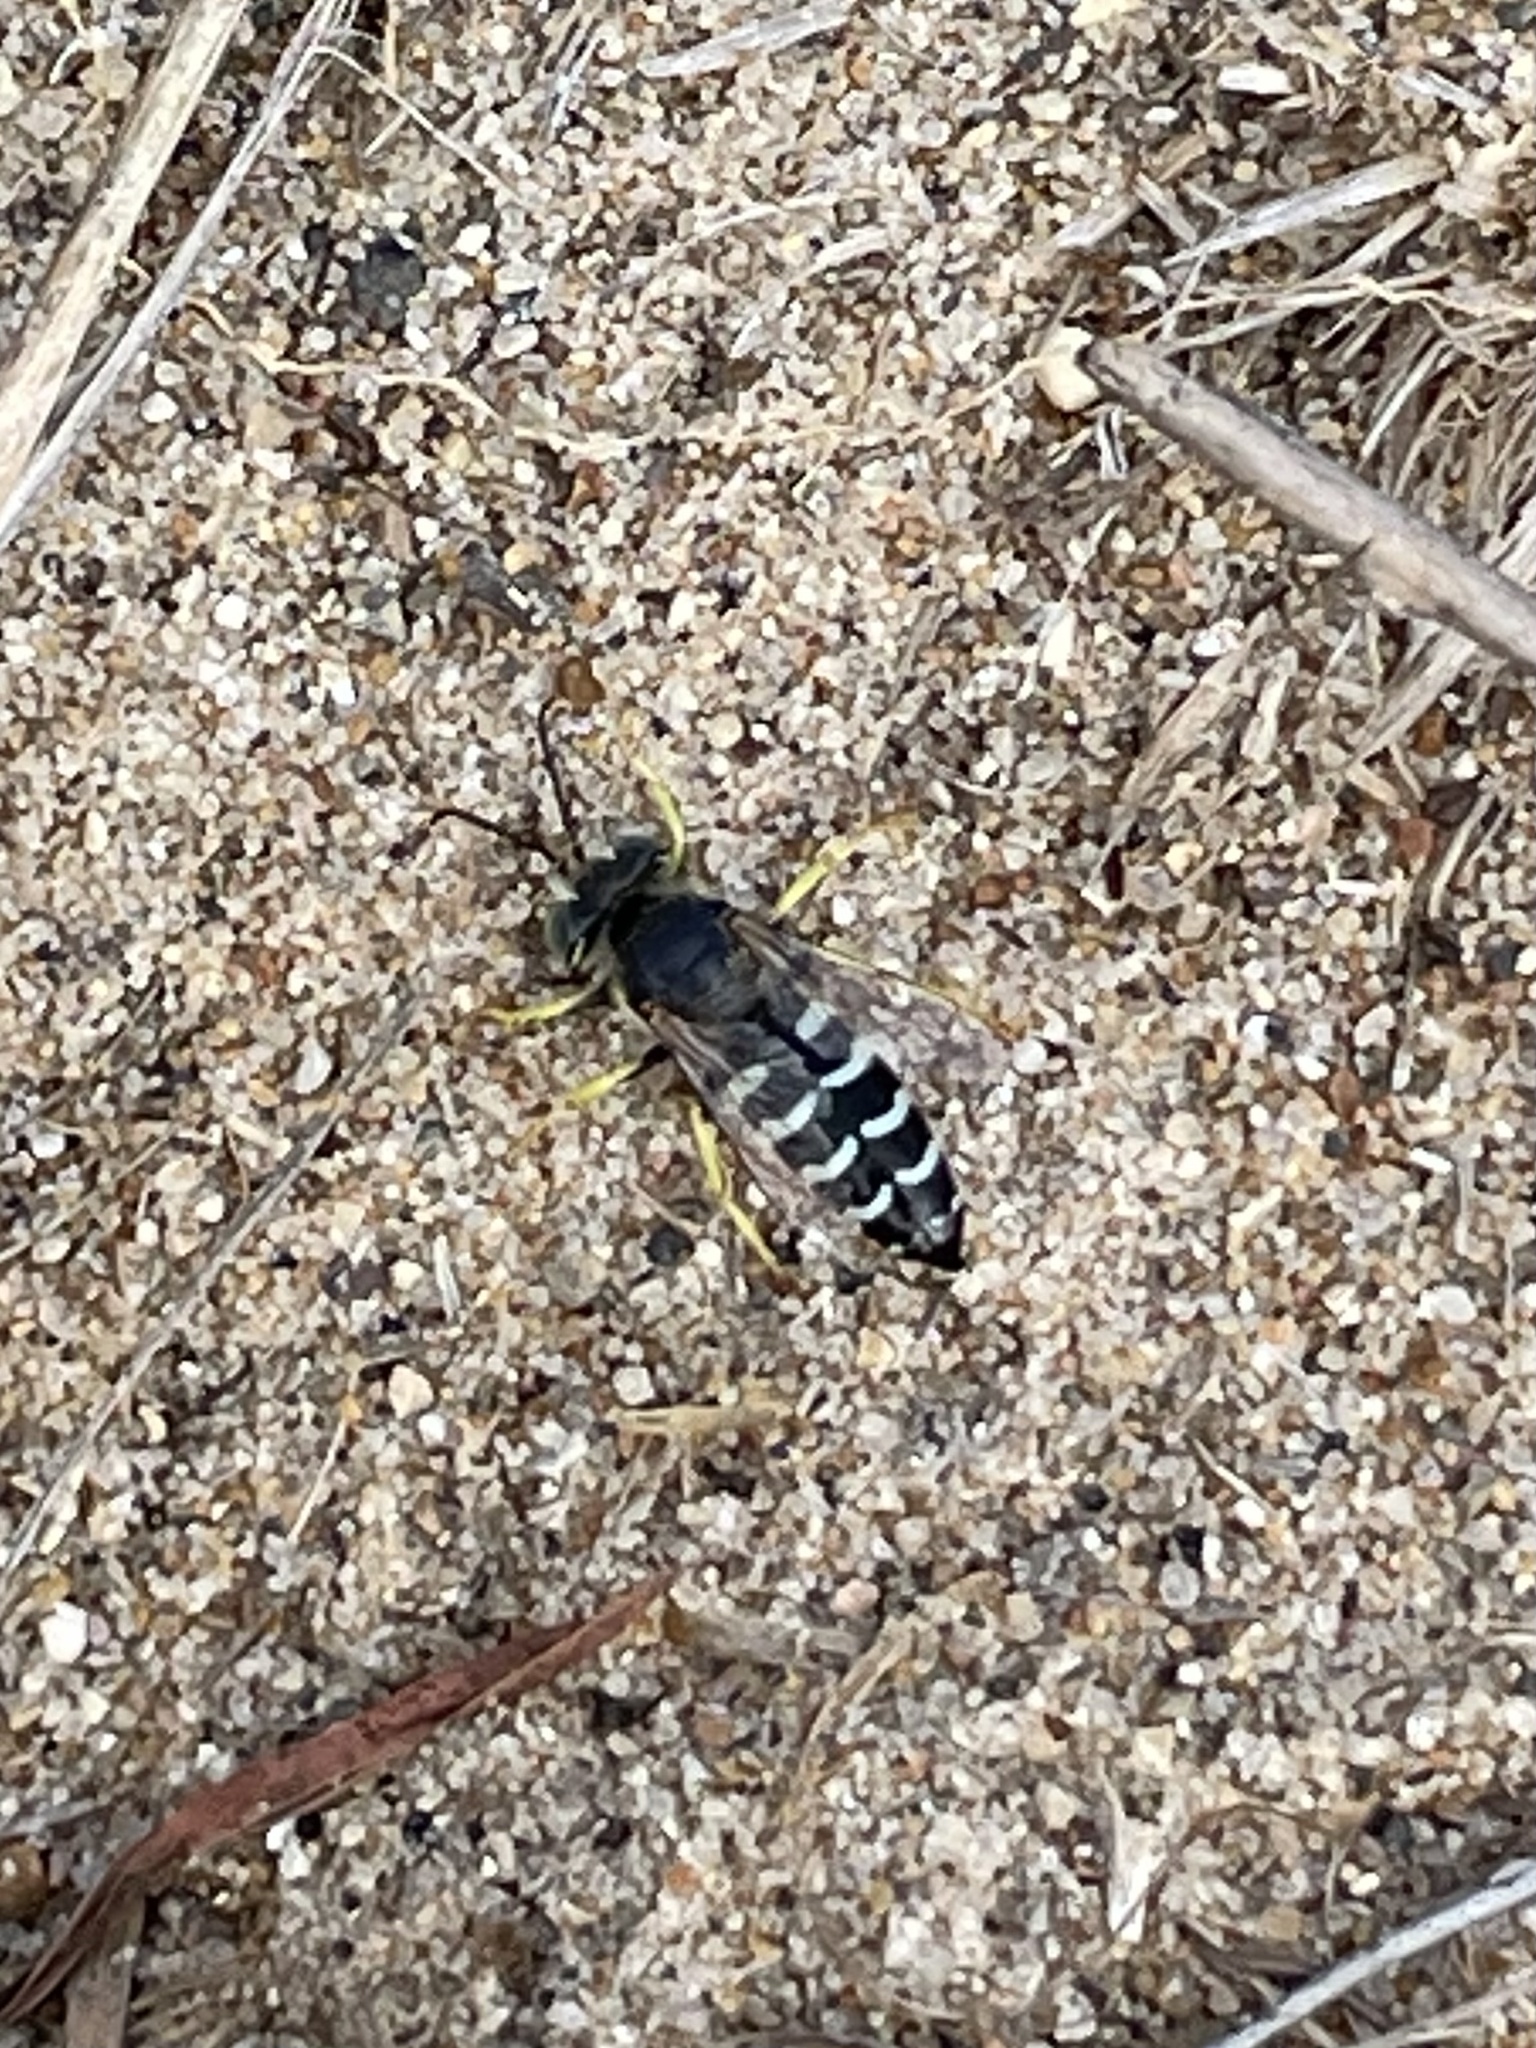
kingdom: Animalia
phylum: Arthropoda
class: Insecta
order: Hymenoptera
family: Crabronidae
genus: Bembix
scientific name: Bembix americana
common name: American sand wasp
